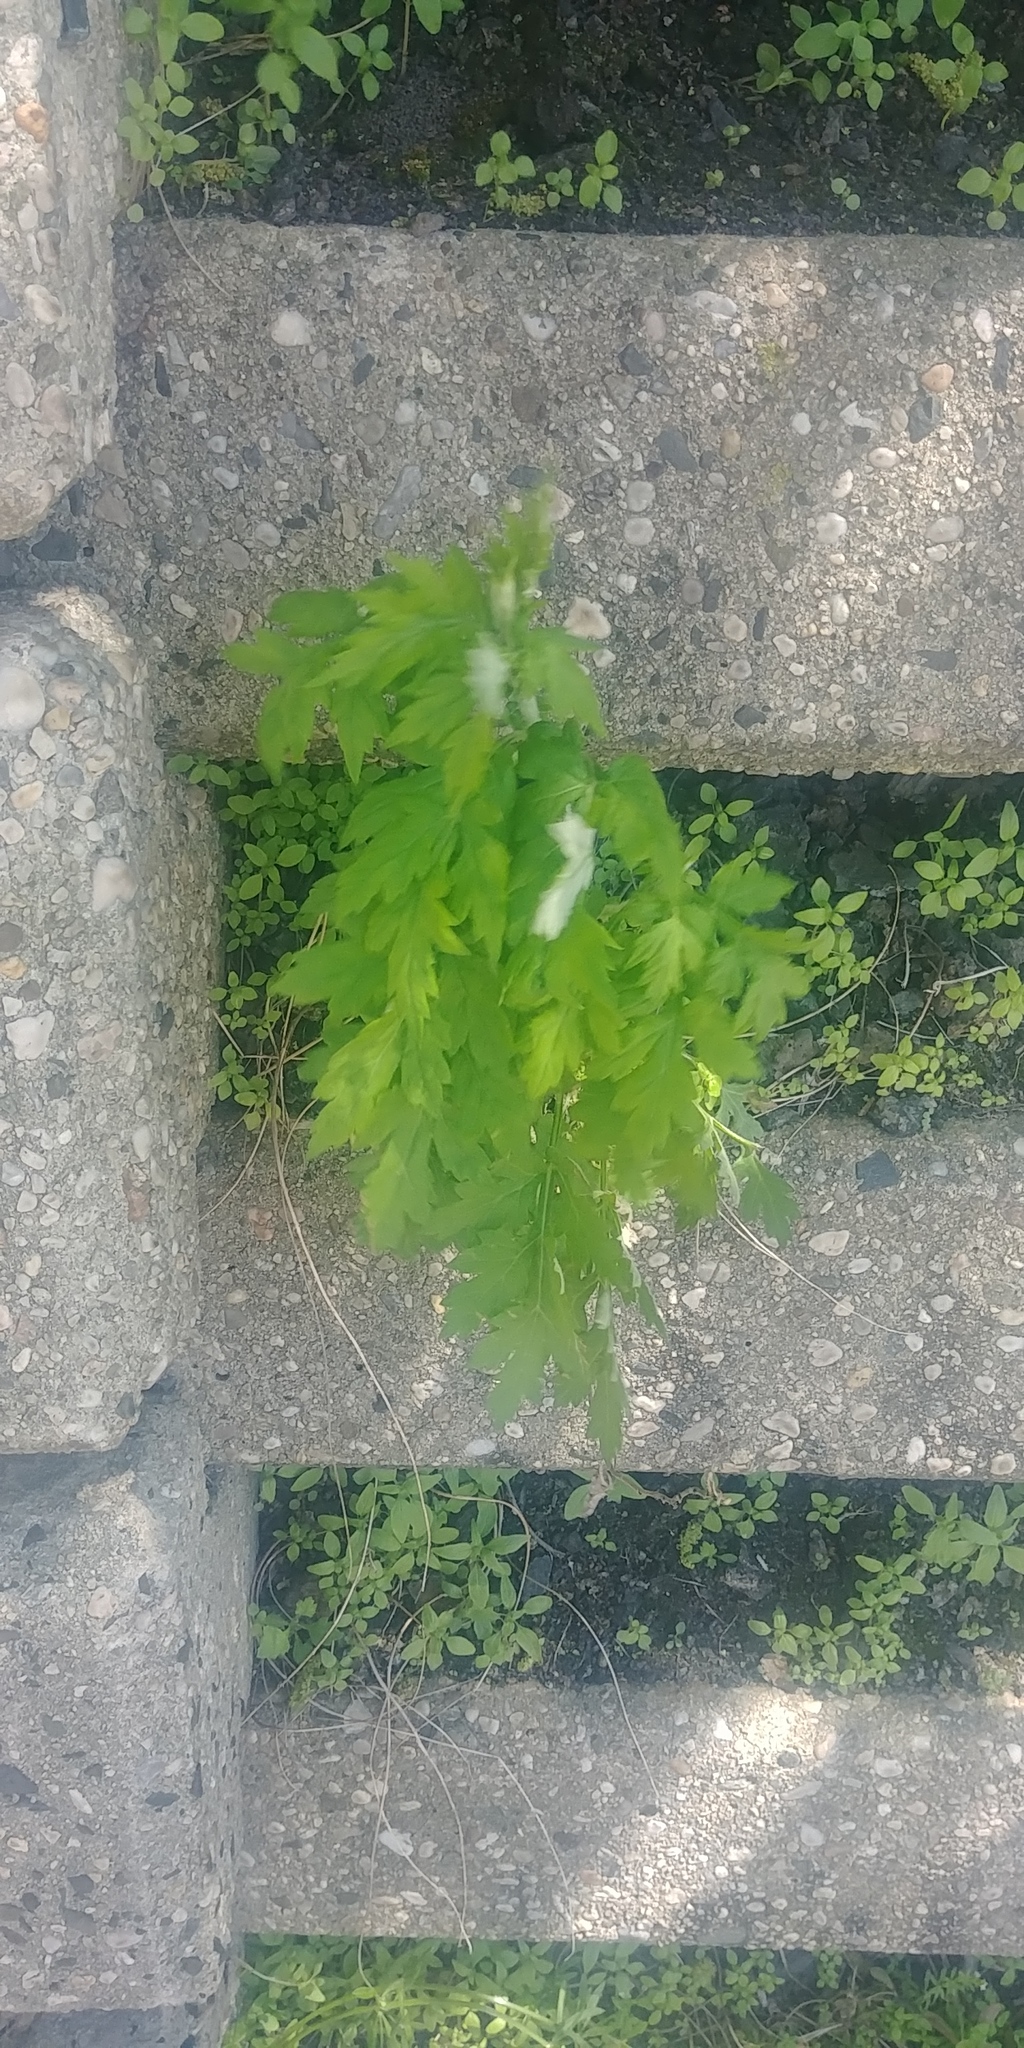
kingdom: Plantae
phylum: Tracheophyta
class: Magnoliopsida
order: Asterales
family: Asteraceae
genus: Artemisia
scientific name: Artemisia vulgaris
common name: Mugwort
